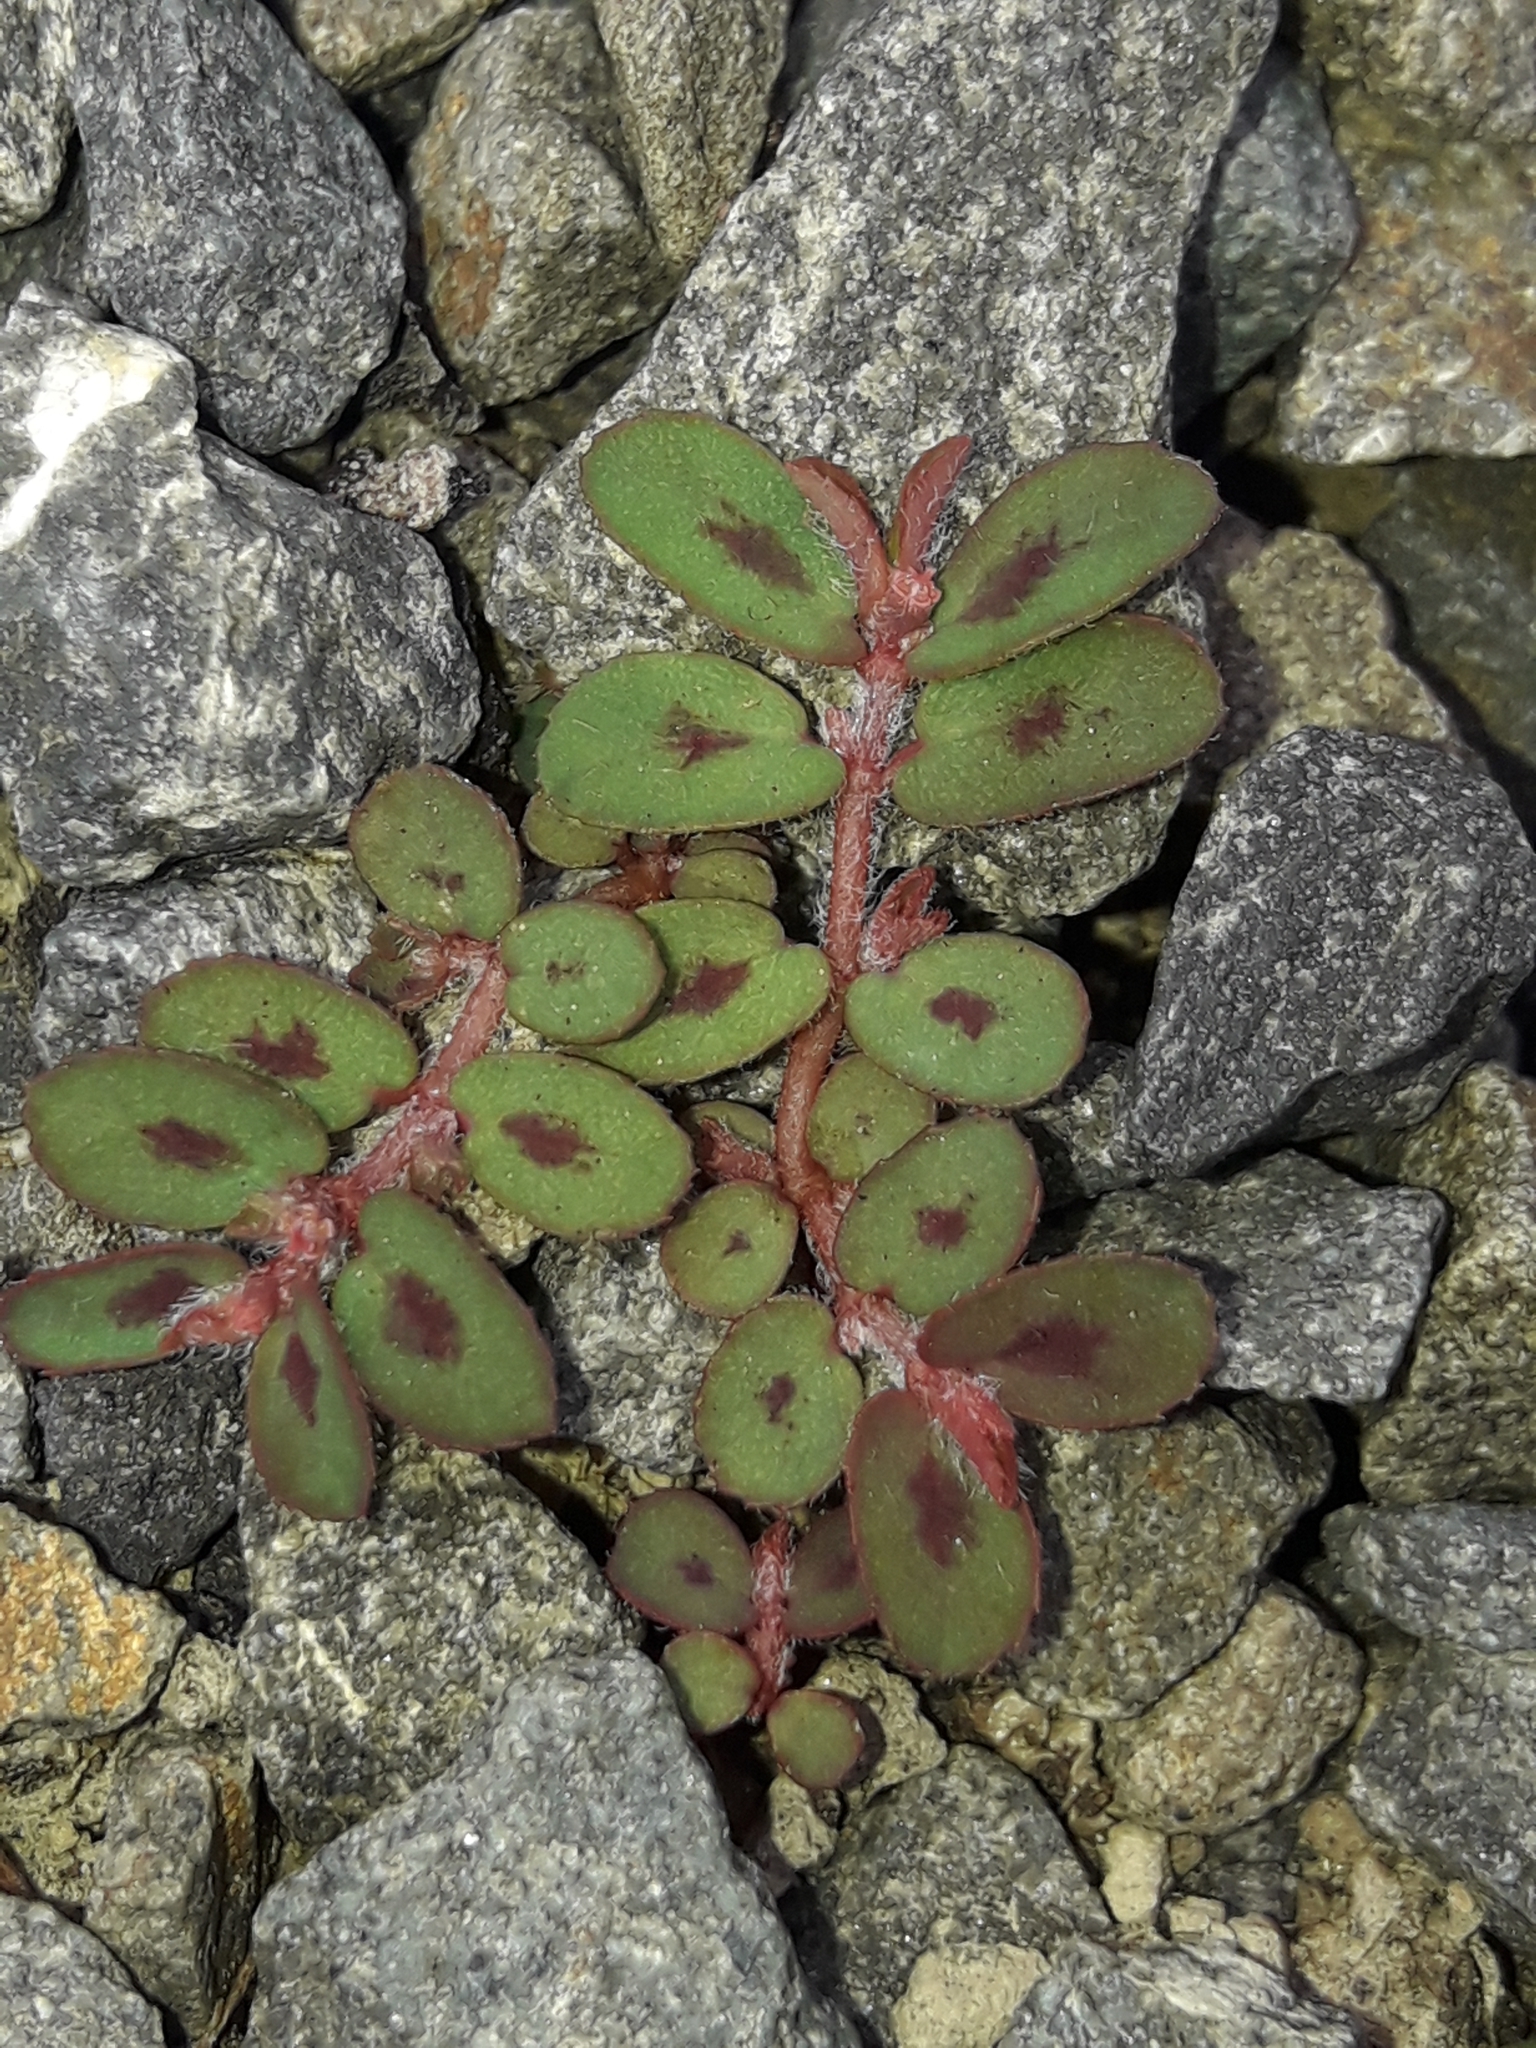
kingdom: Plantae
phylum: Tracheophyta
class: Magnoliopsida
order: Malpighiales
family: Euphorbiaceae
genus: Euphorbia
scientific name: Euphorbia maculata
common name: Spotted spurge
